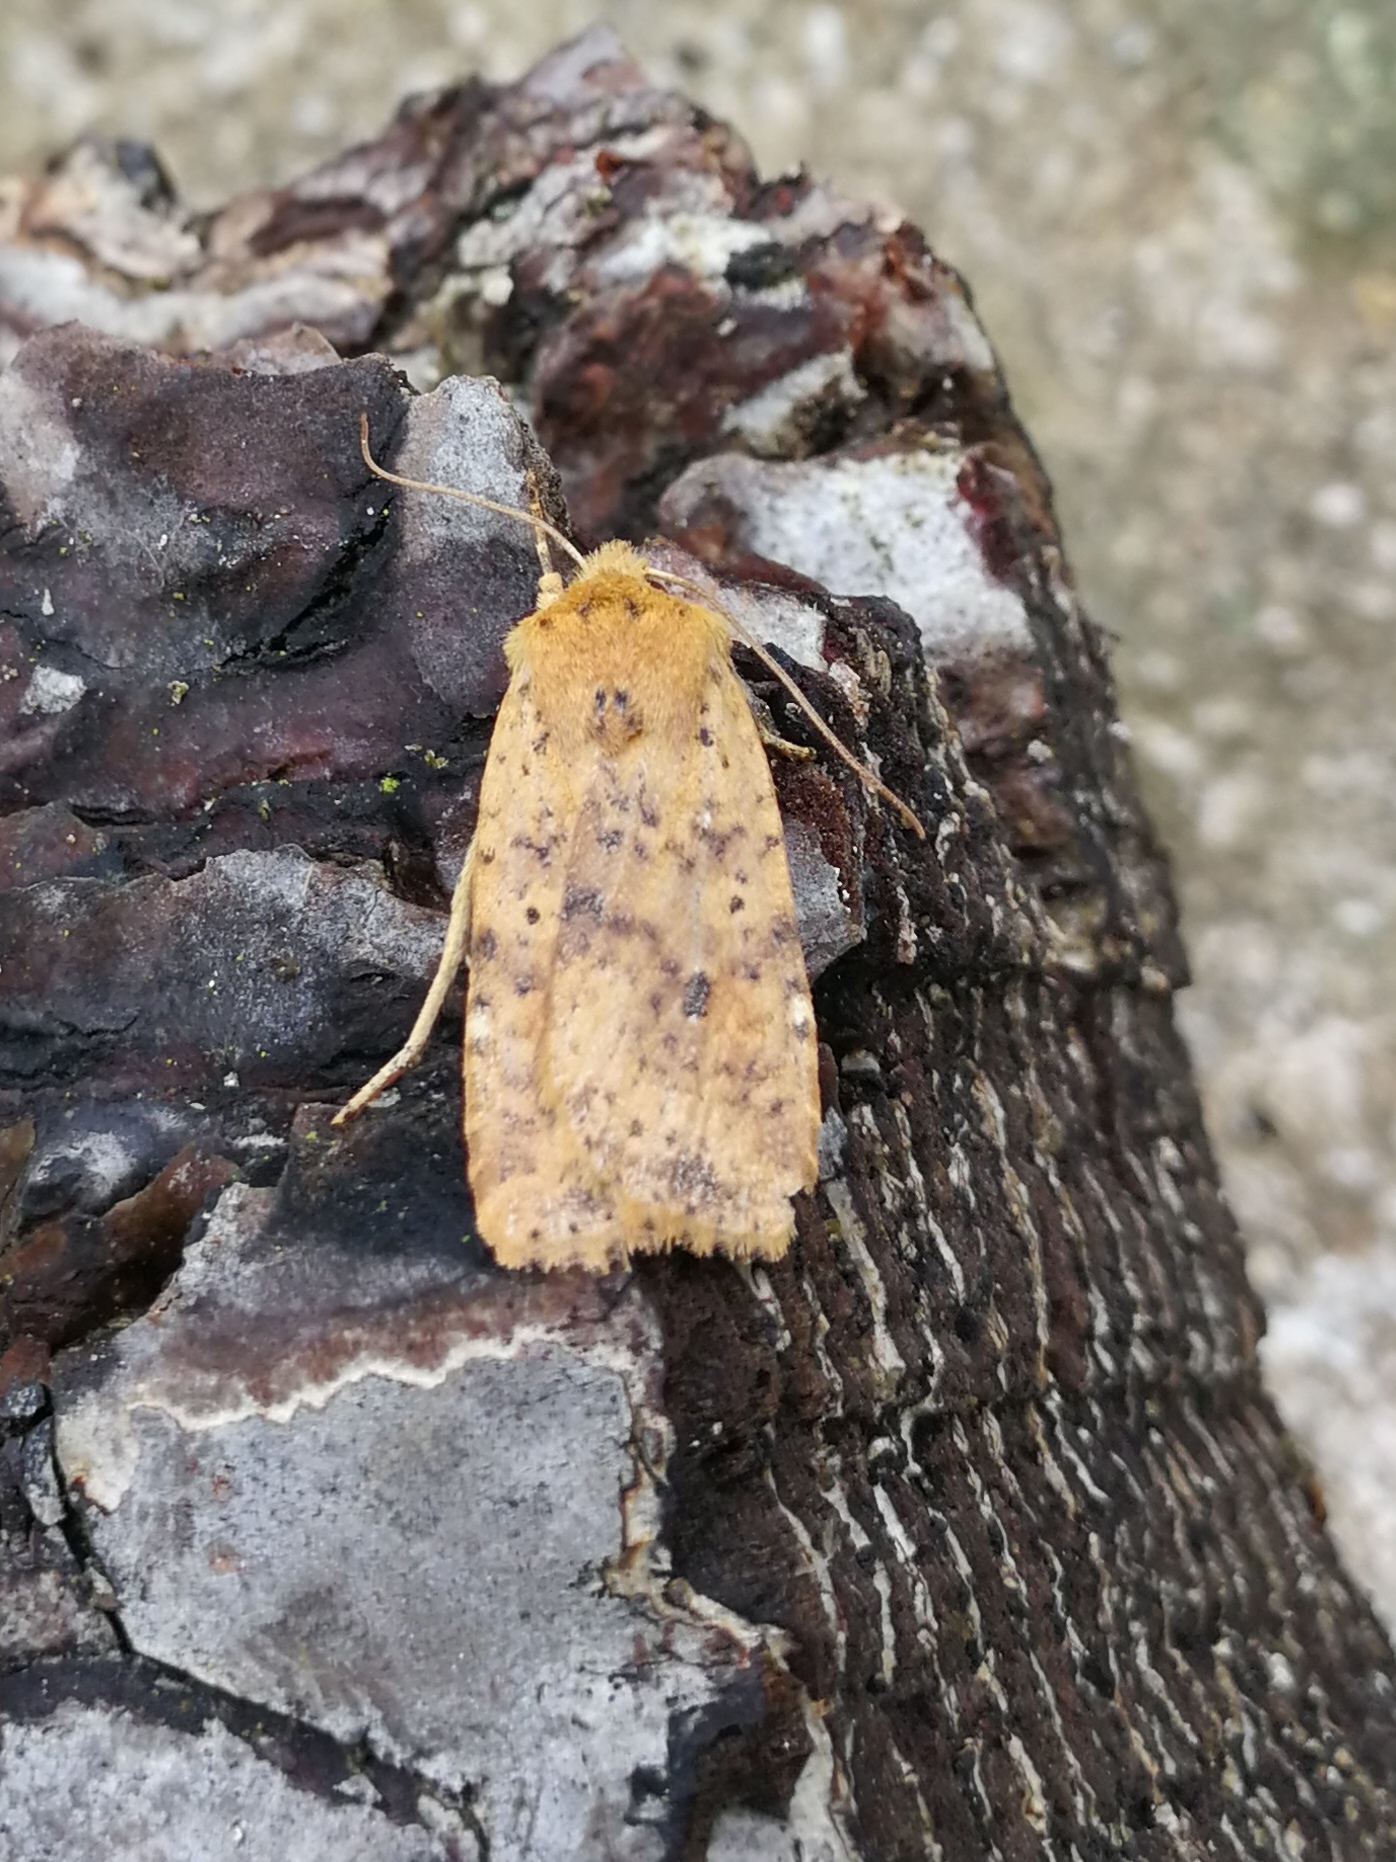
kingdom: Animalia
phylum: Arthropoda
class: Insecta
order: Lepidoptera
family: Noctuidae
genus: Conistra
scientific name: Conistra rubiginea
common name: Dotted chestnut
